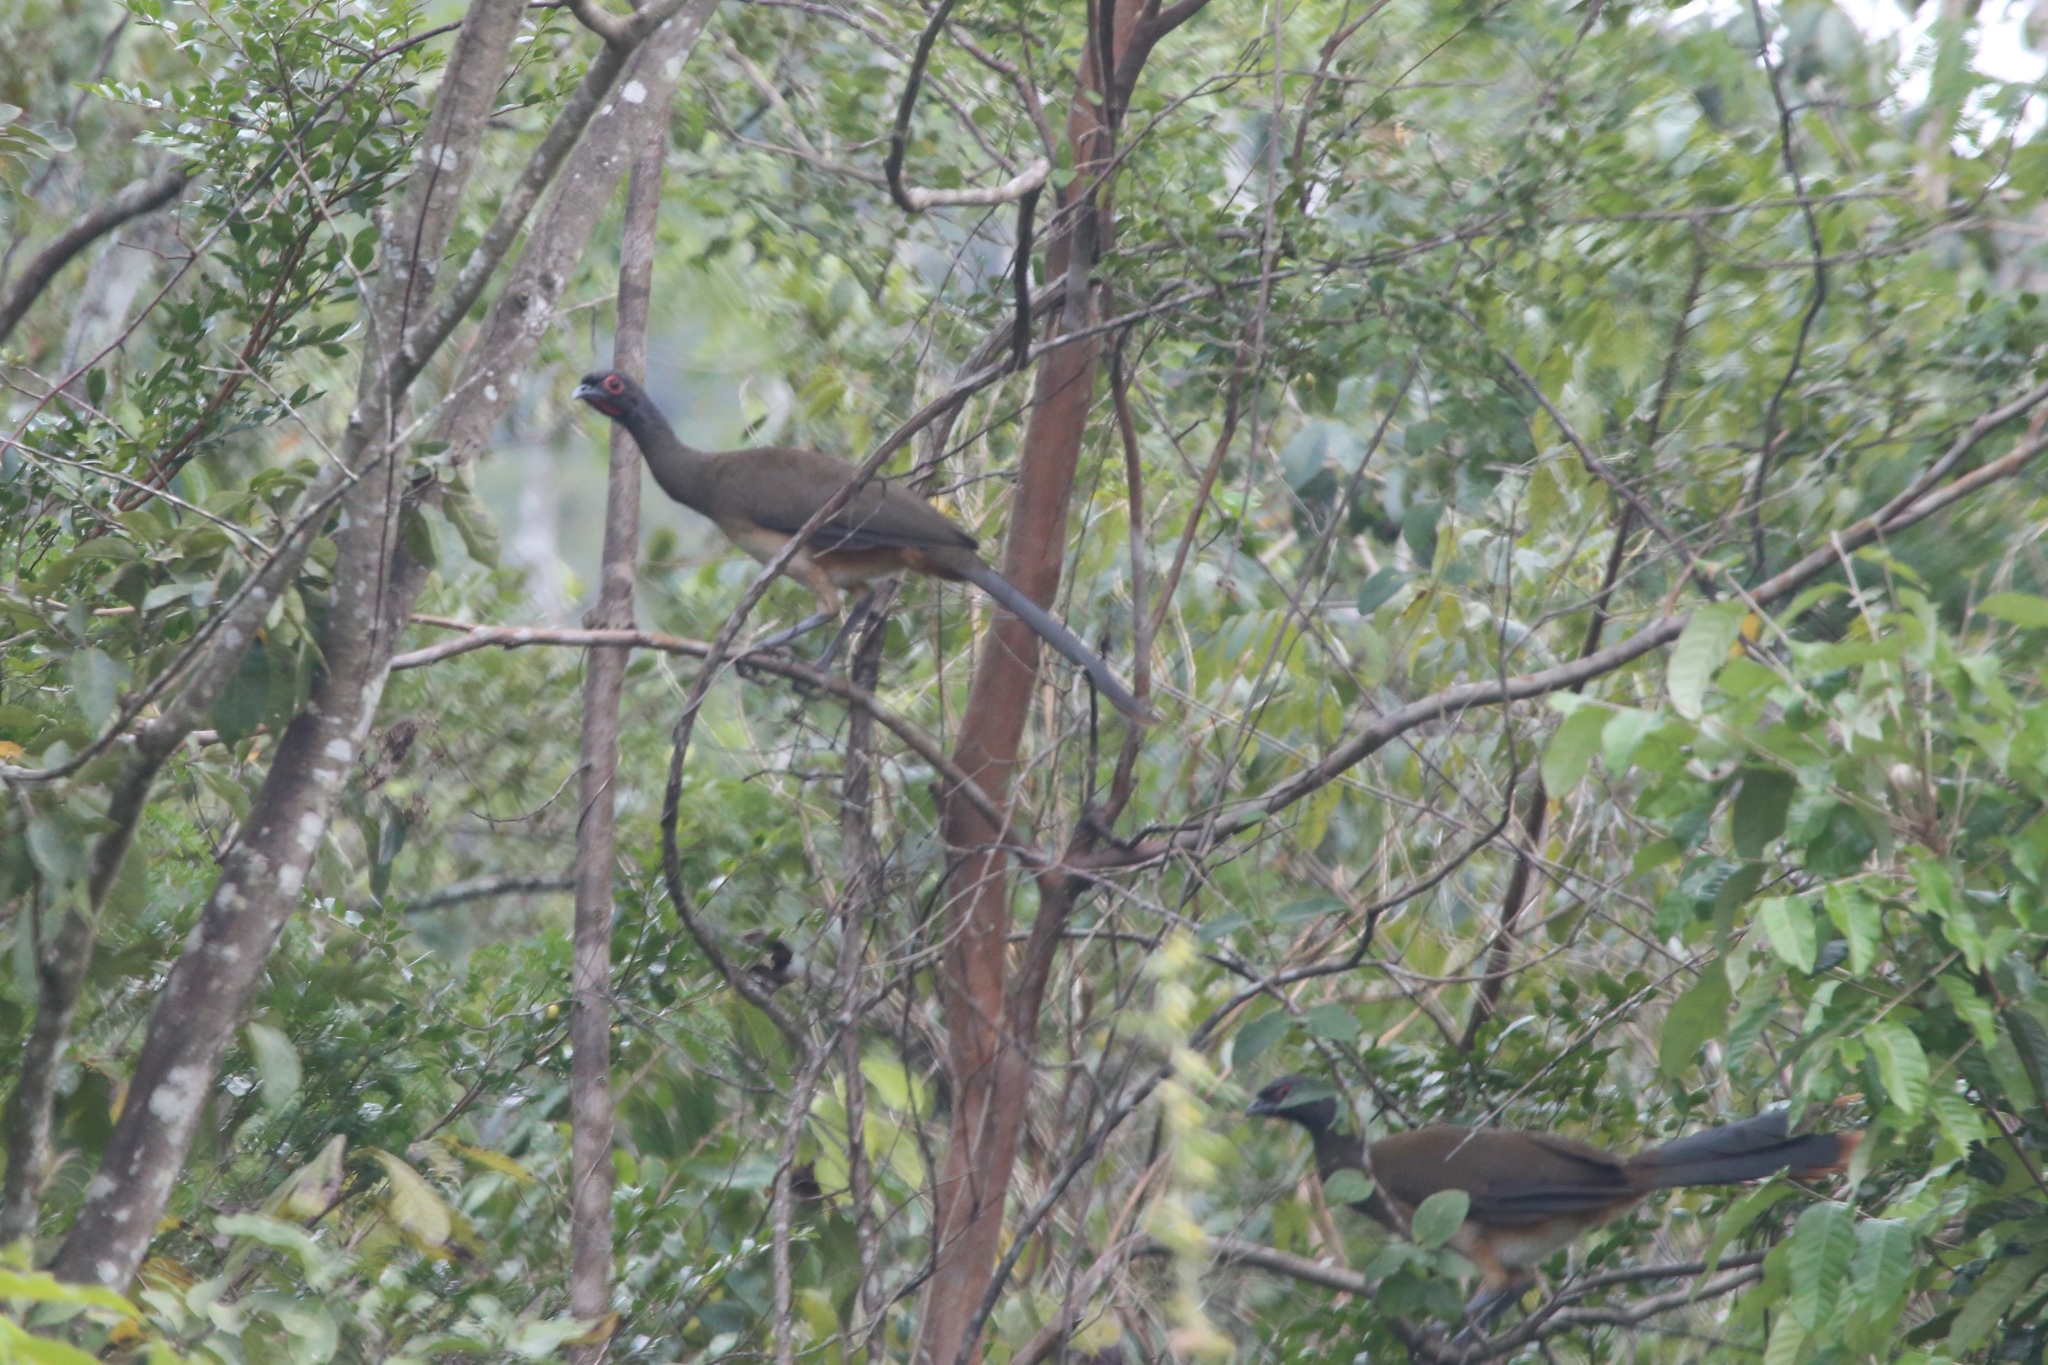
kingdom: Animalia
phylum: Chordata
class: Aves
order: Galliformes
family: Cracidae
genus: Ortalis
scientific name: Ortalis poliocephala
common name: West mexican chachalaca
